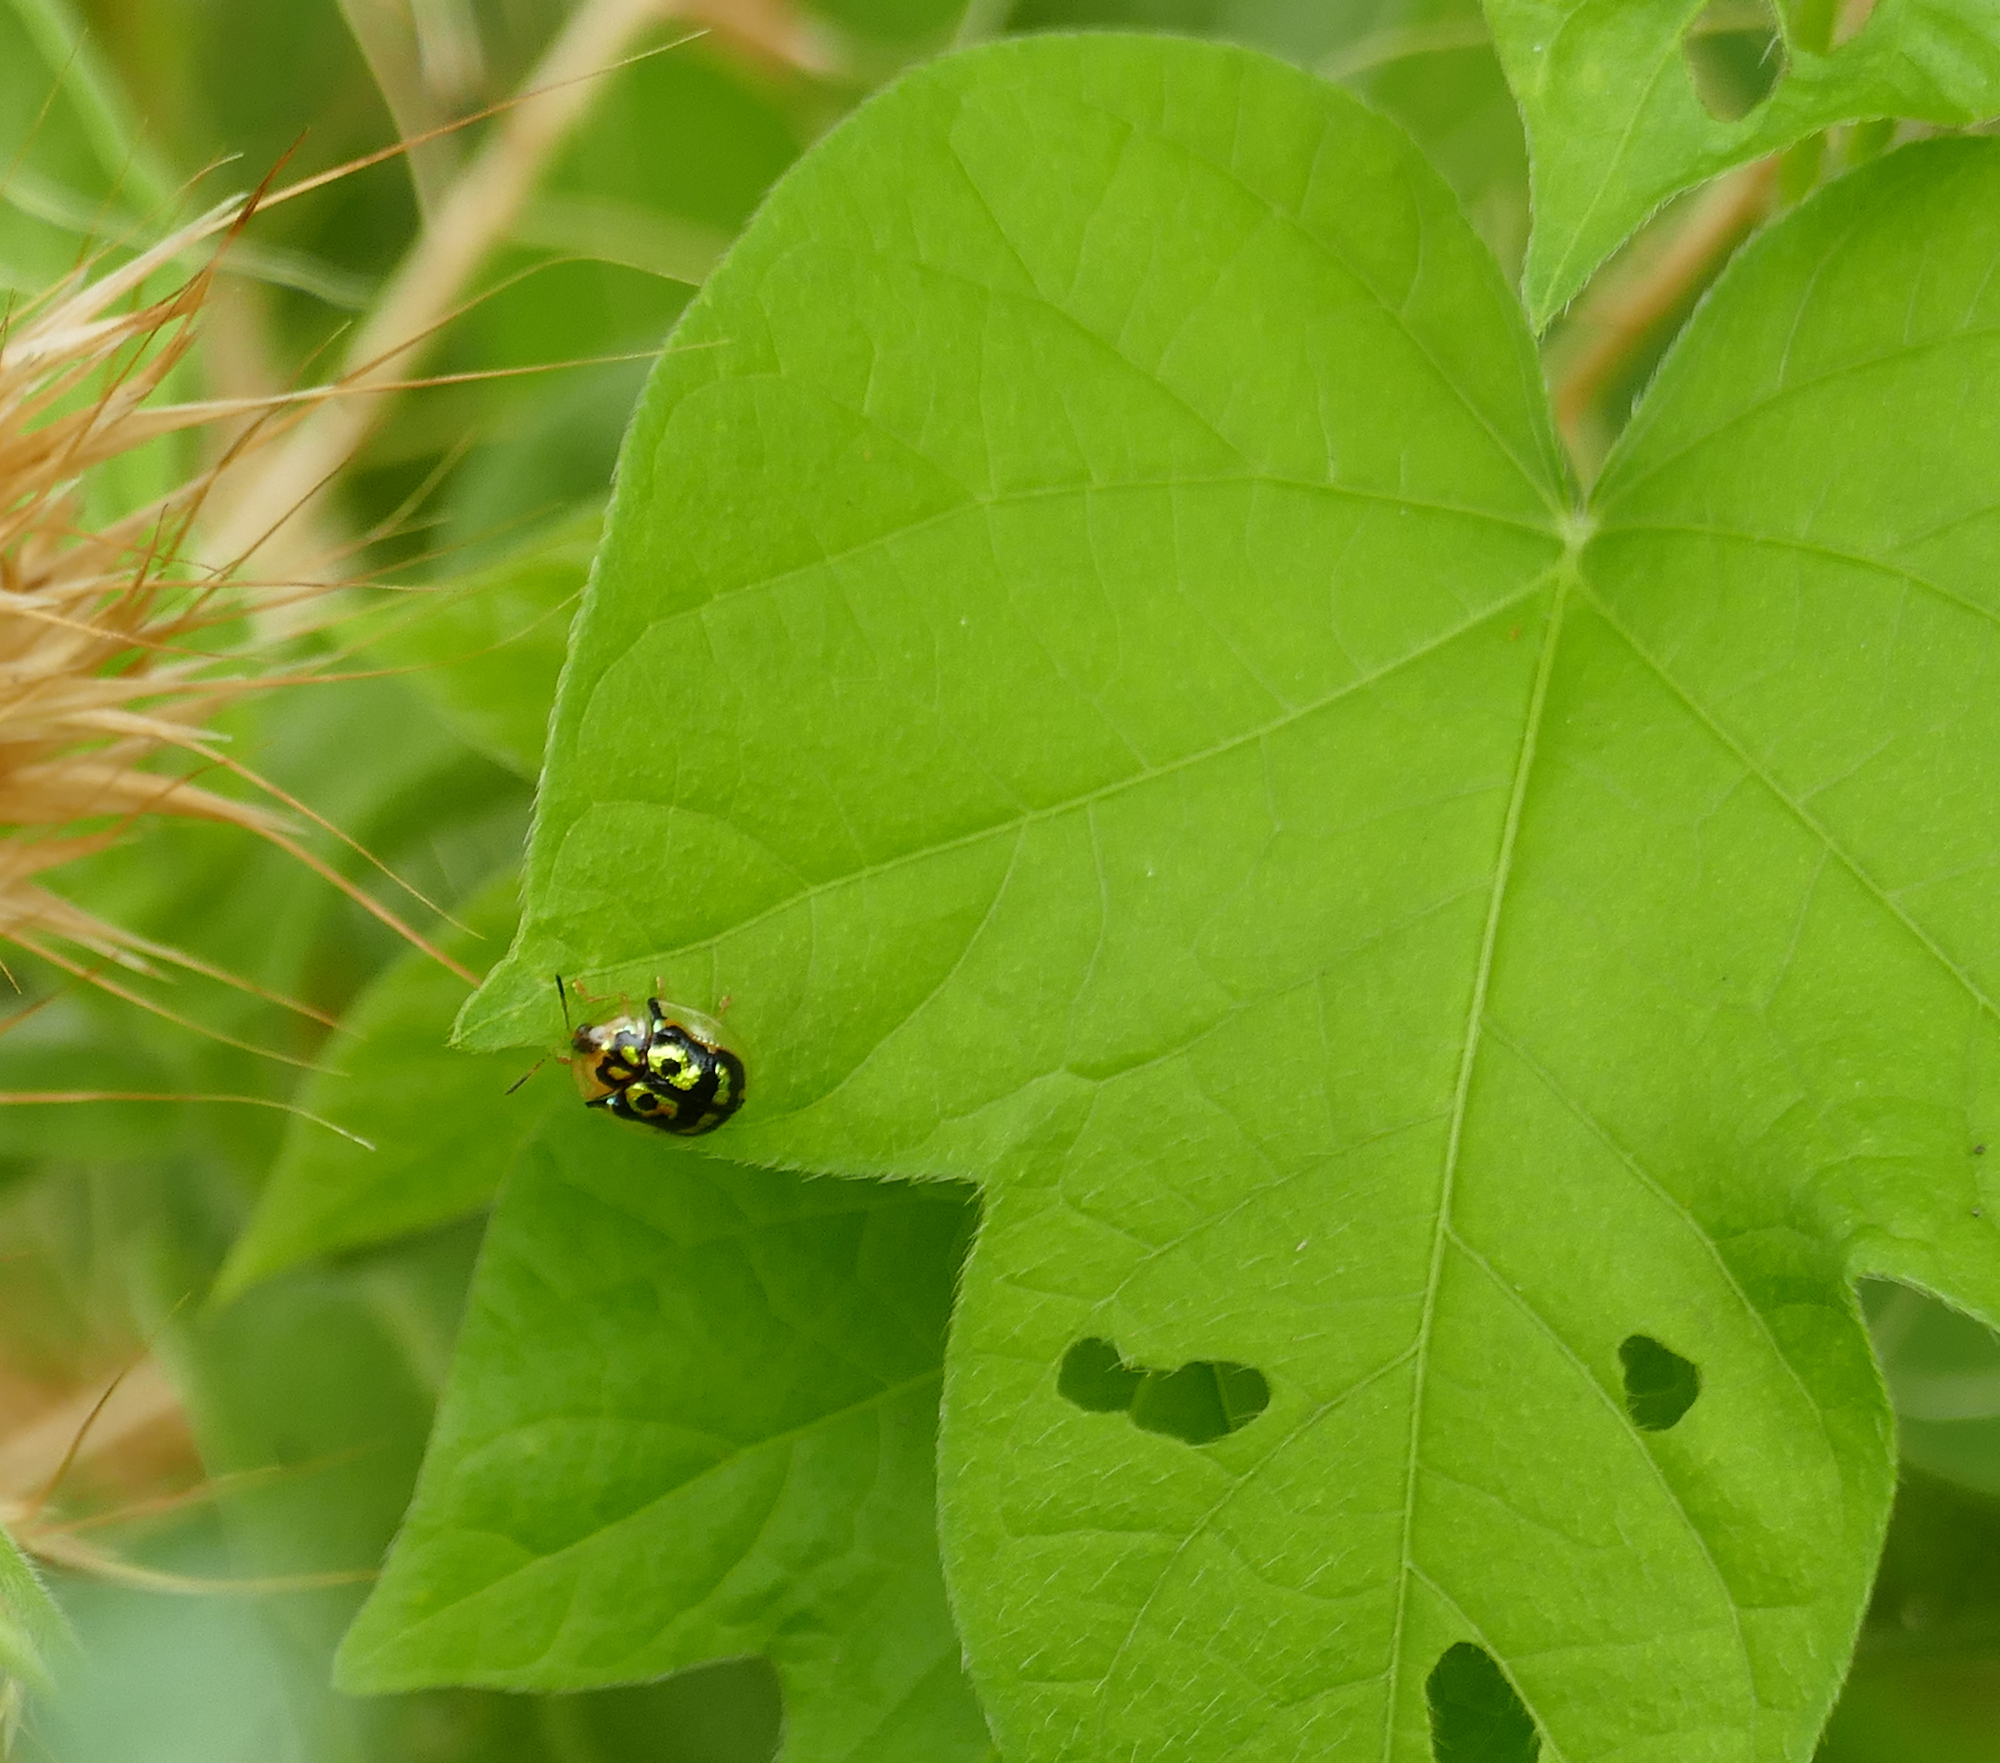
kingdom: Animalia
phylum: Arthropoda
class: Insecta
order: Coleoptera
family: Chrysomelidae
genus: Deloyala
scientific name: Deloyala lecontei
